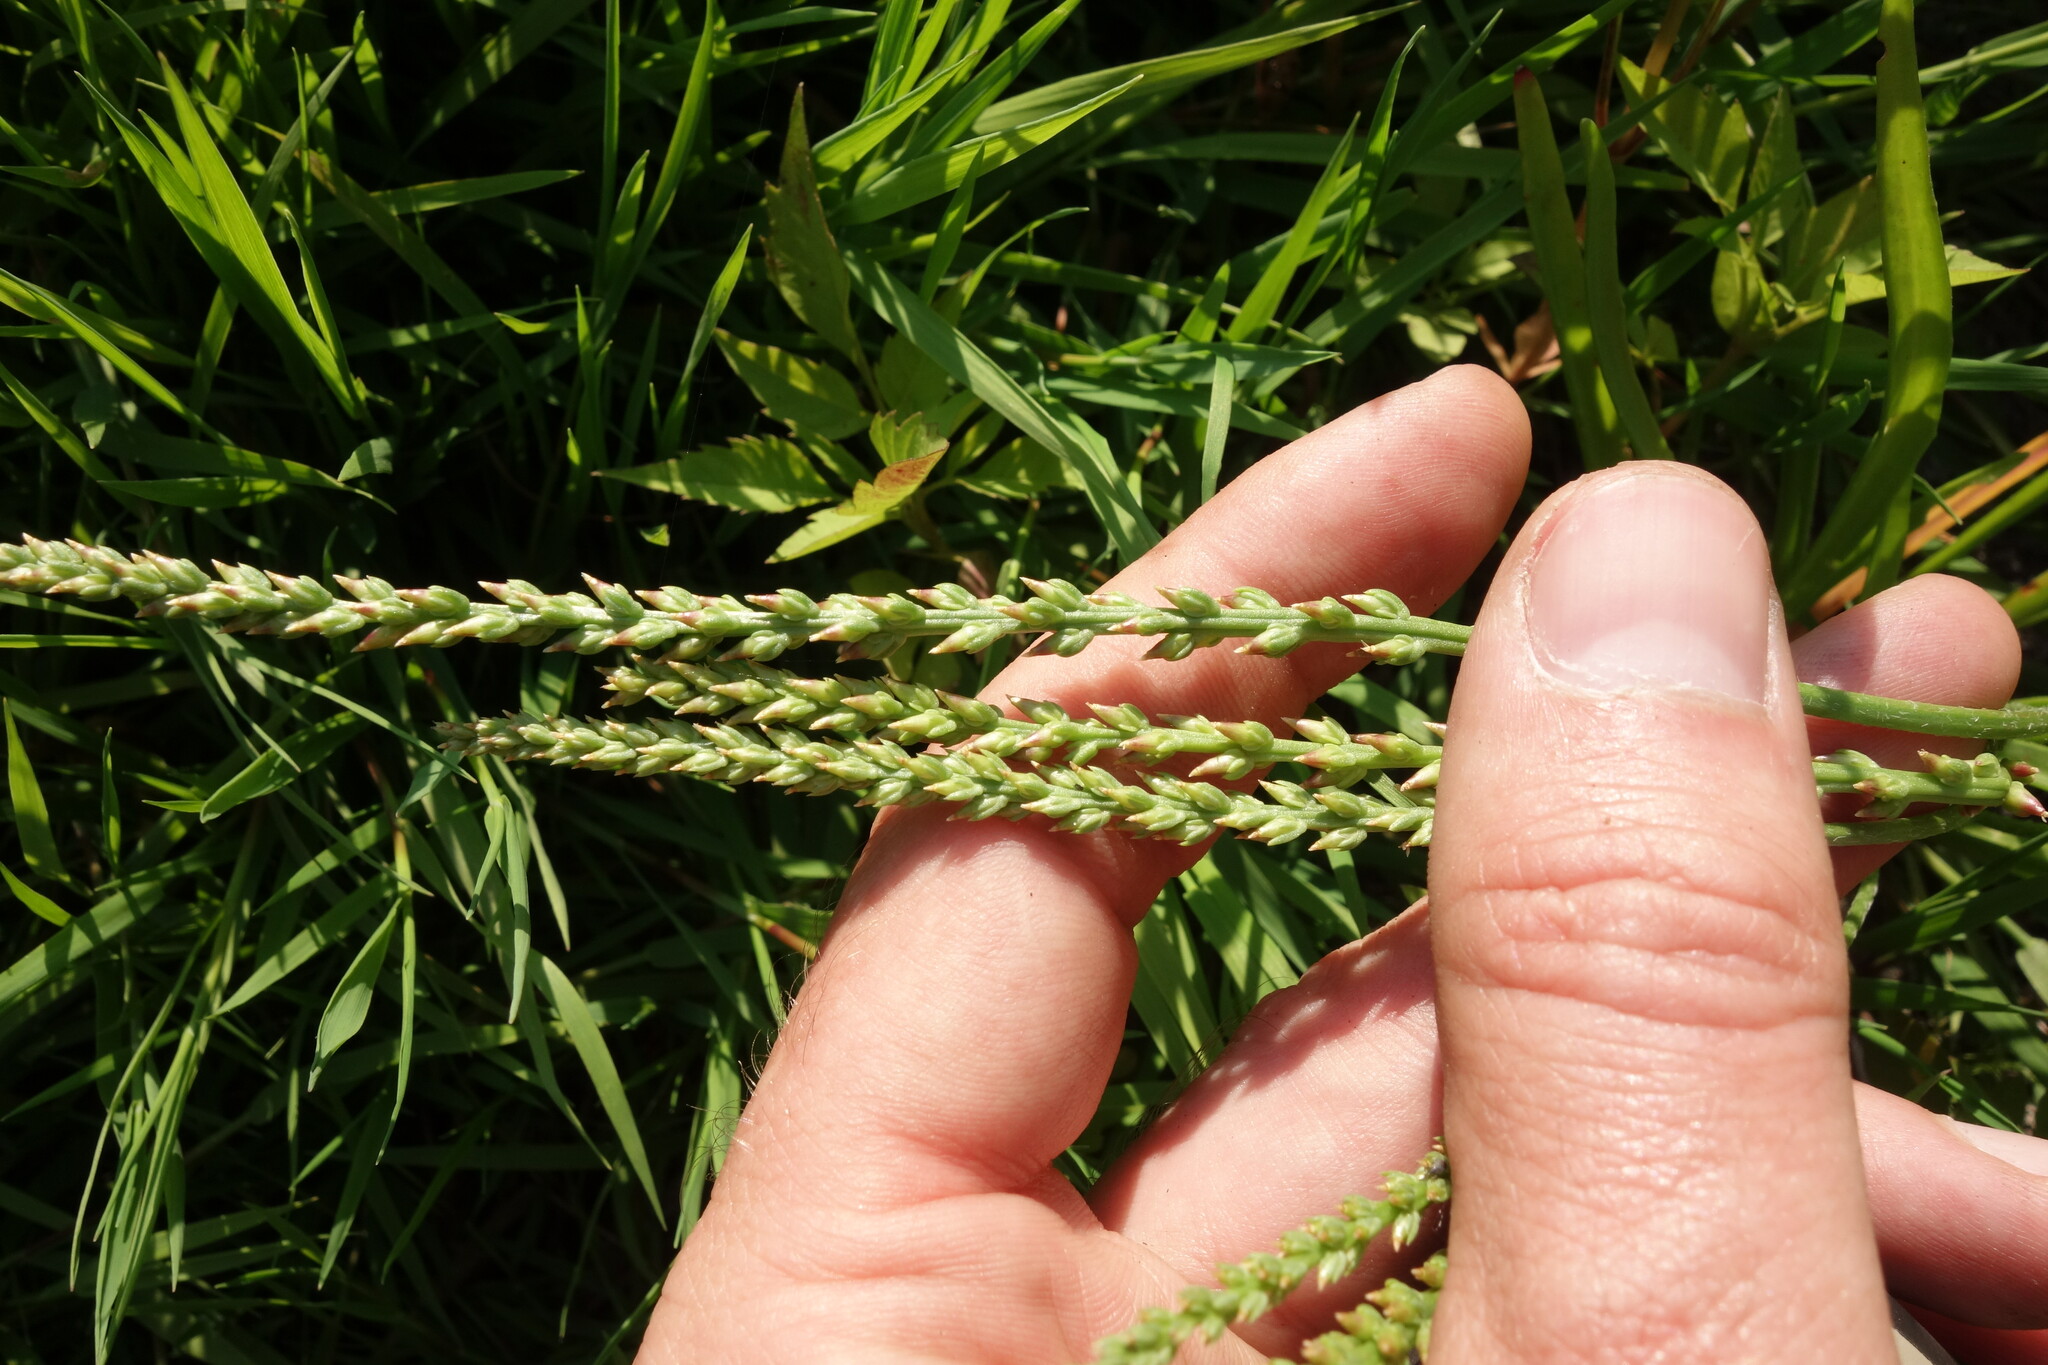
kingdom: Plantae
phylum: Tracheophyta
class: Magnoliopsida
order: Lamiales
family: Plantaginaceae
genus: Plantago
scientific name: Plantago tenuiflora
